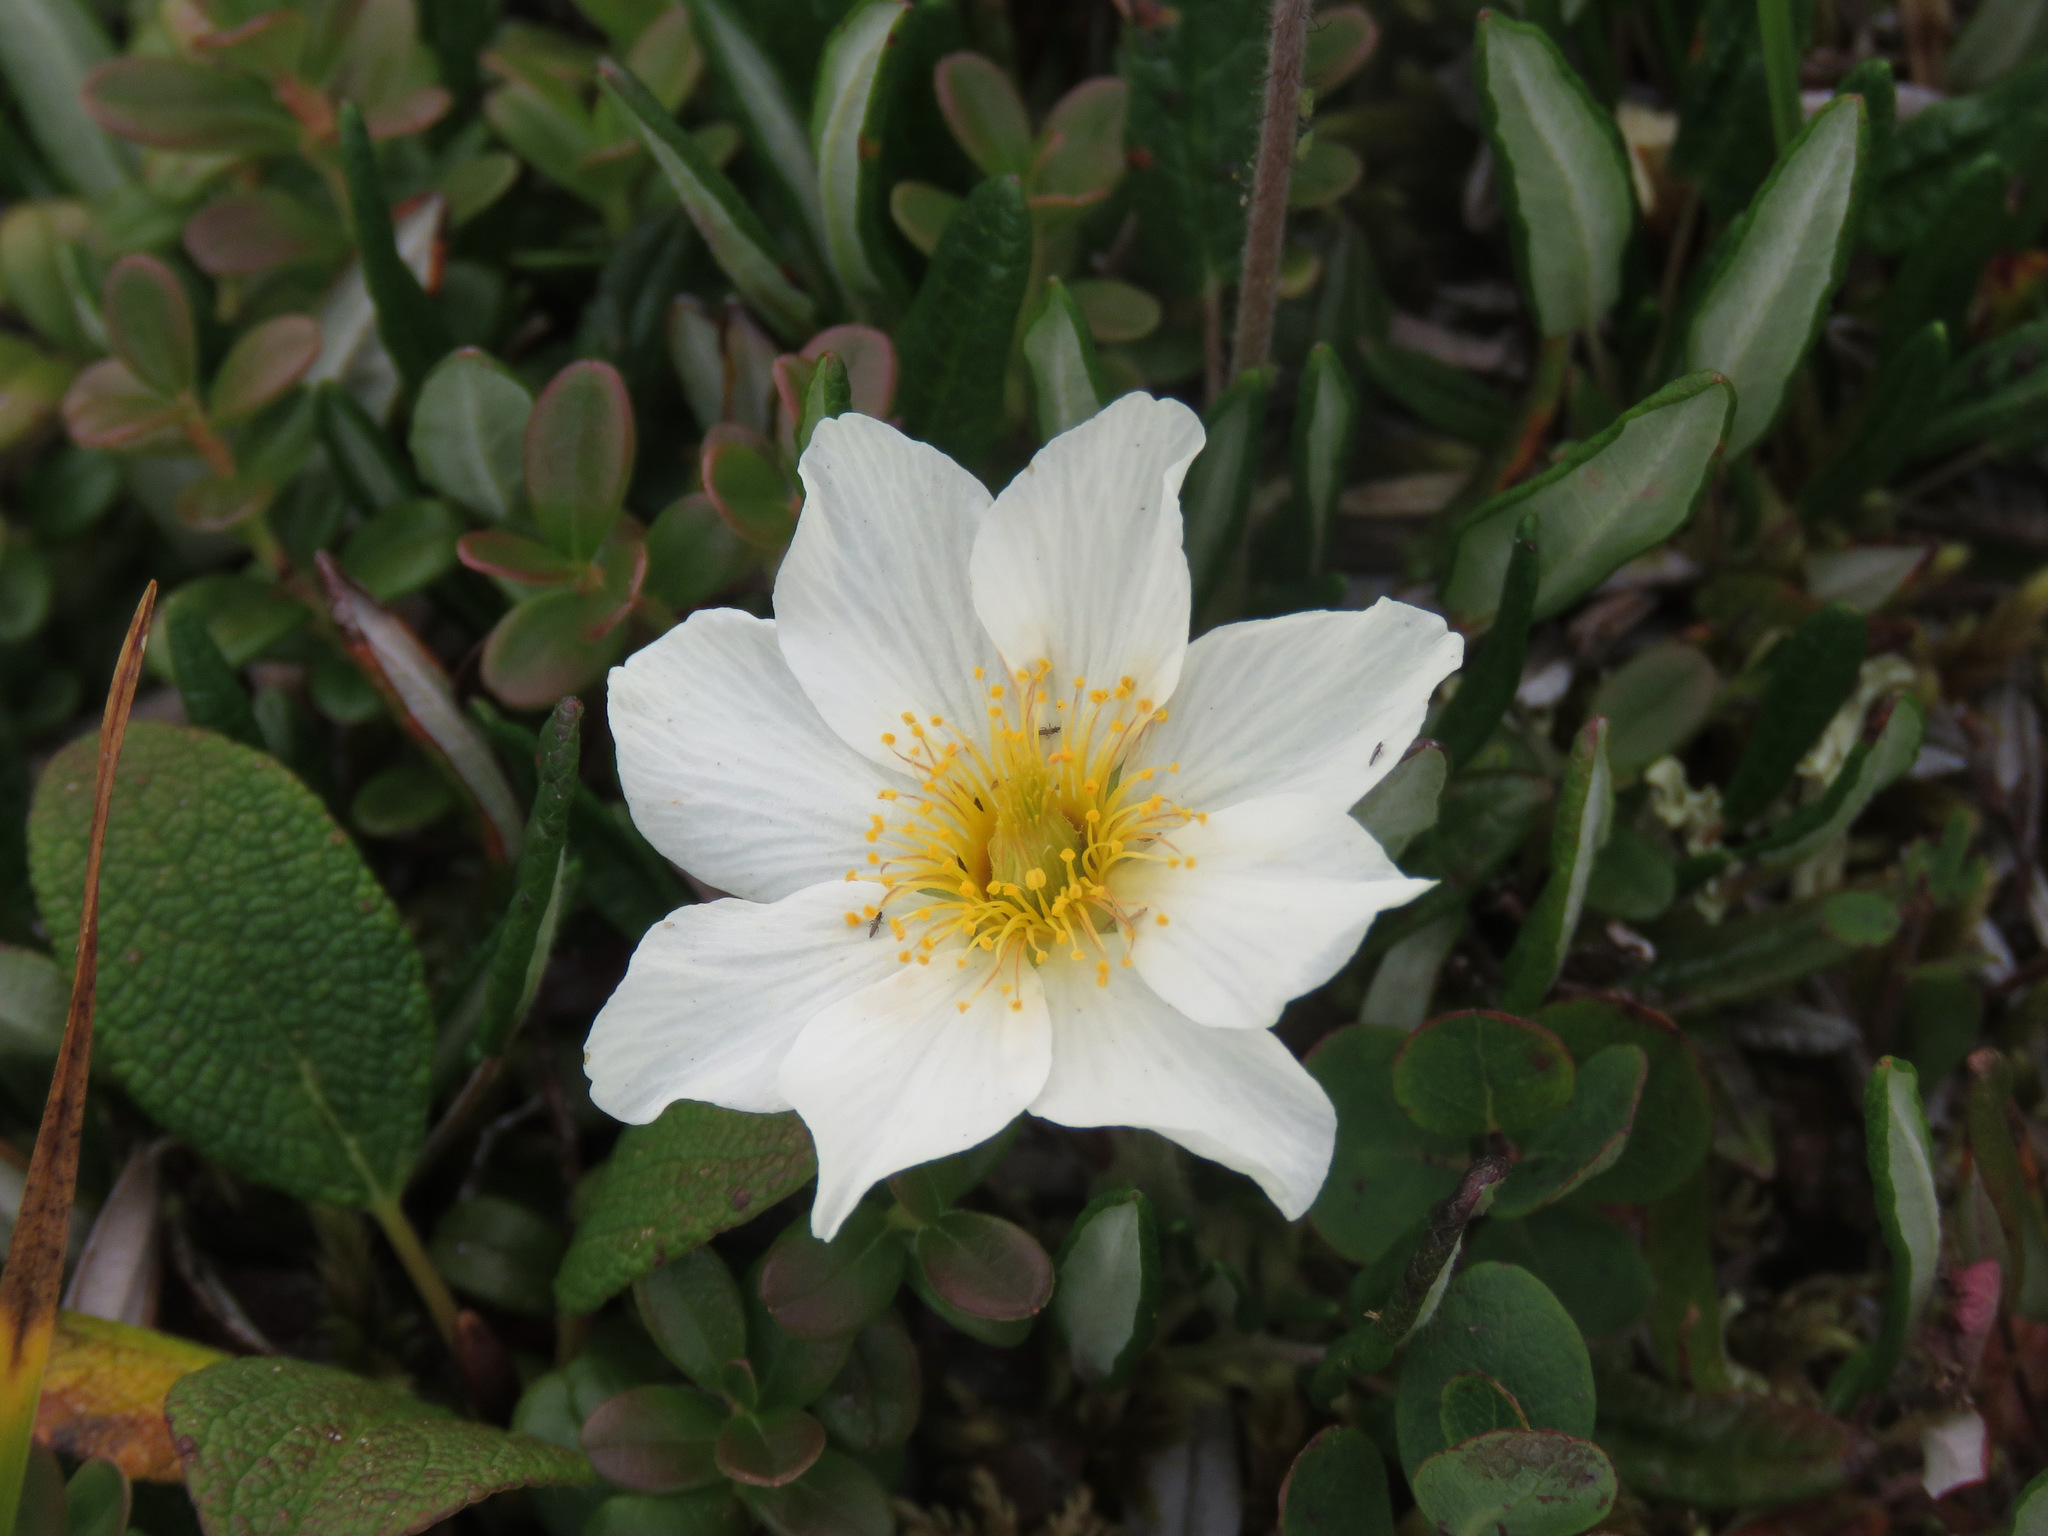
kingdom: Plantae
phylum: Tracheophyta
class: Magnoliopsida
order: Rosales
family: Rosaceae
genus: Dryas
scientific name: Dryas integrifolia
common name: Entire-leaved mountain avens
